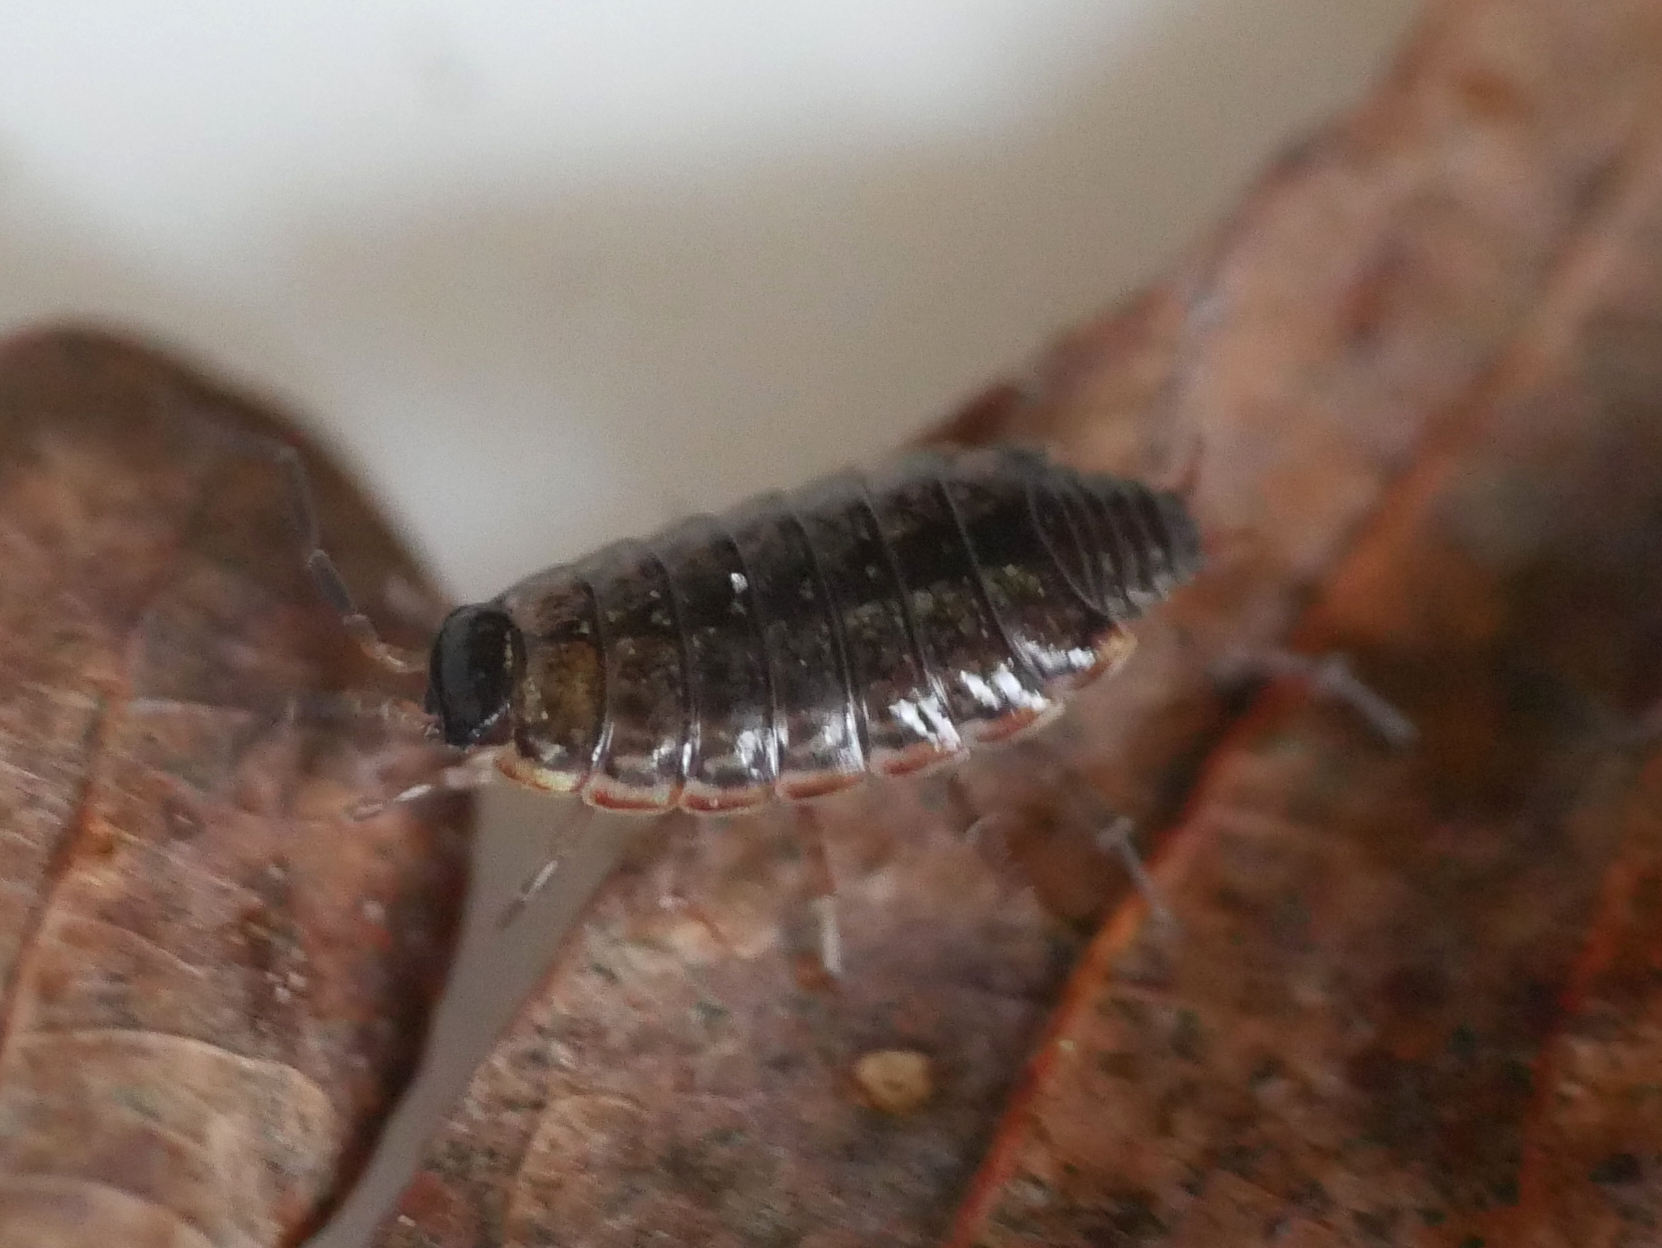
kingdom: Animalia
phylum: Arthropoda
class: Malacostraca
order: Isopoda
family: Philosciidae
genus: Philoscia
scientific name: Philoscia muscorum
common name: Common striped woodlouse
